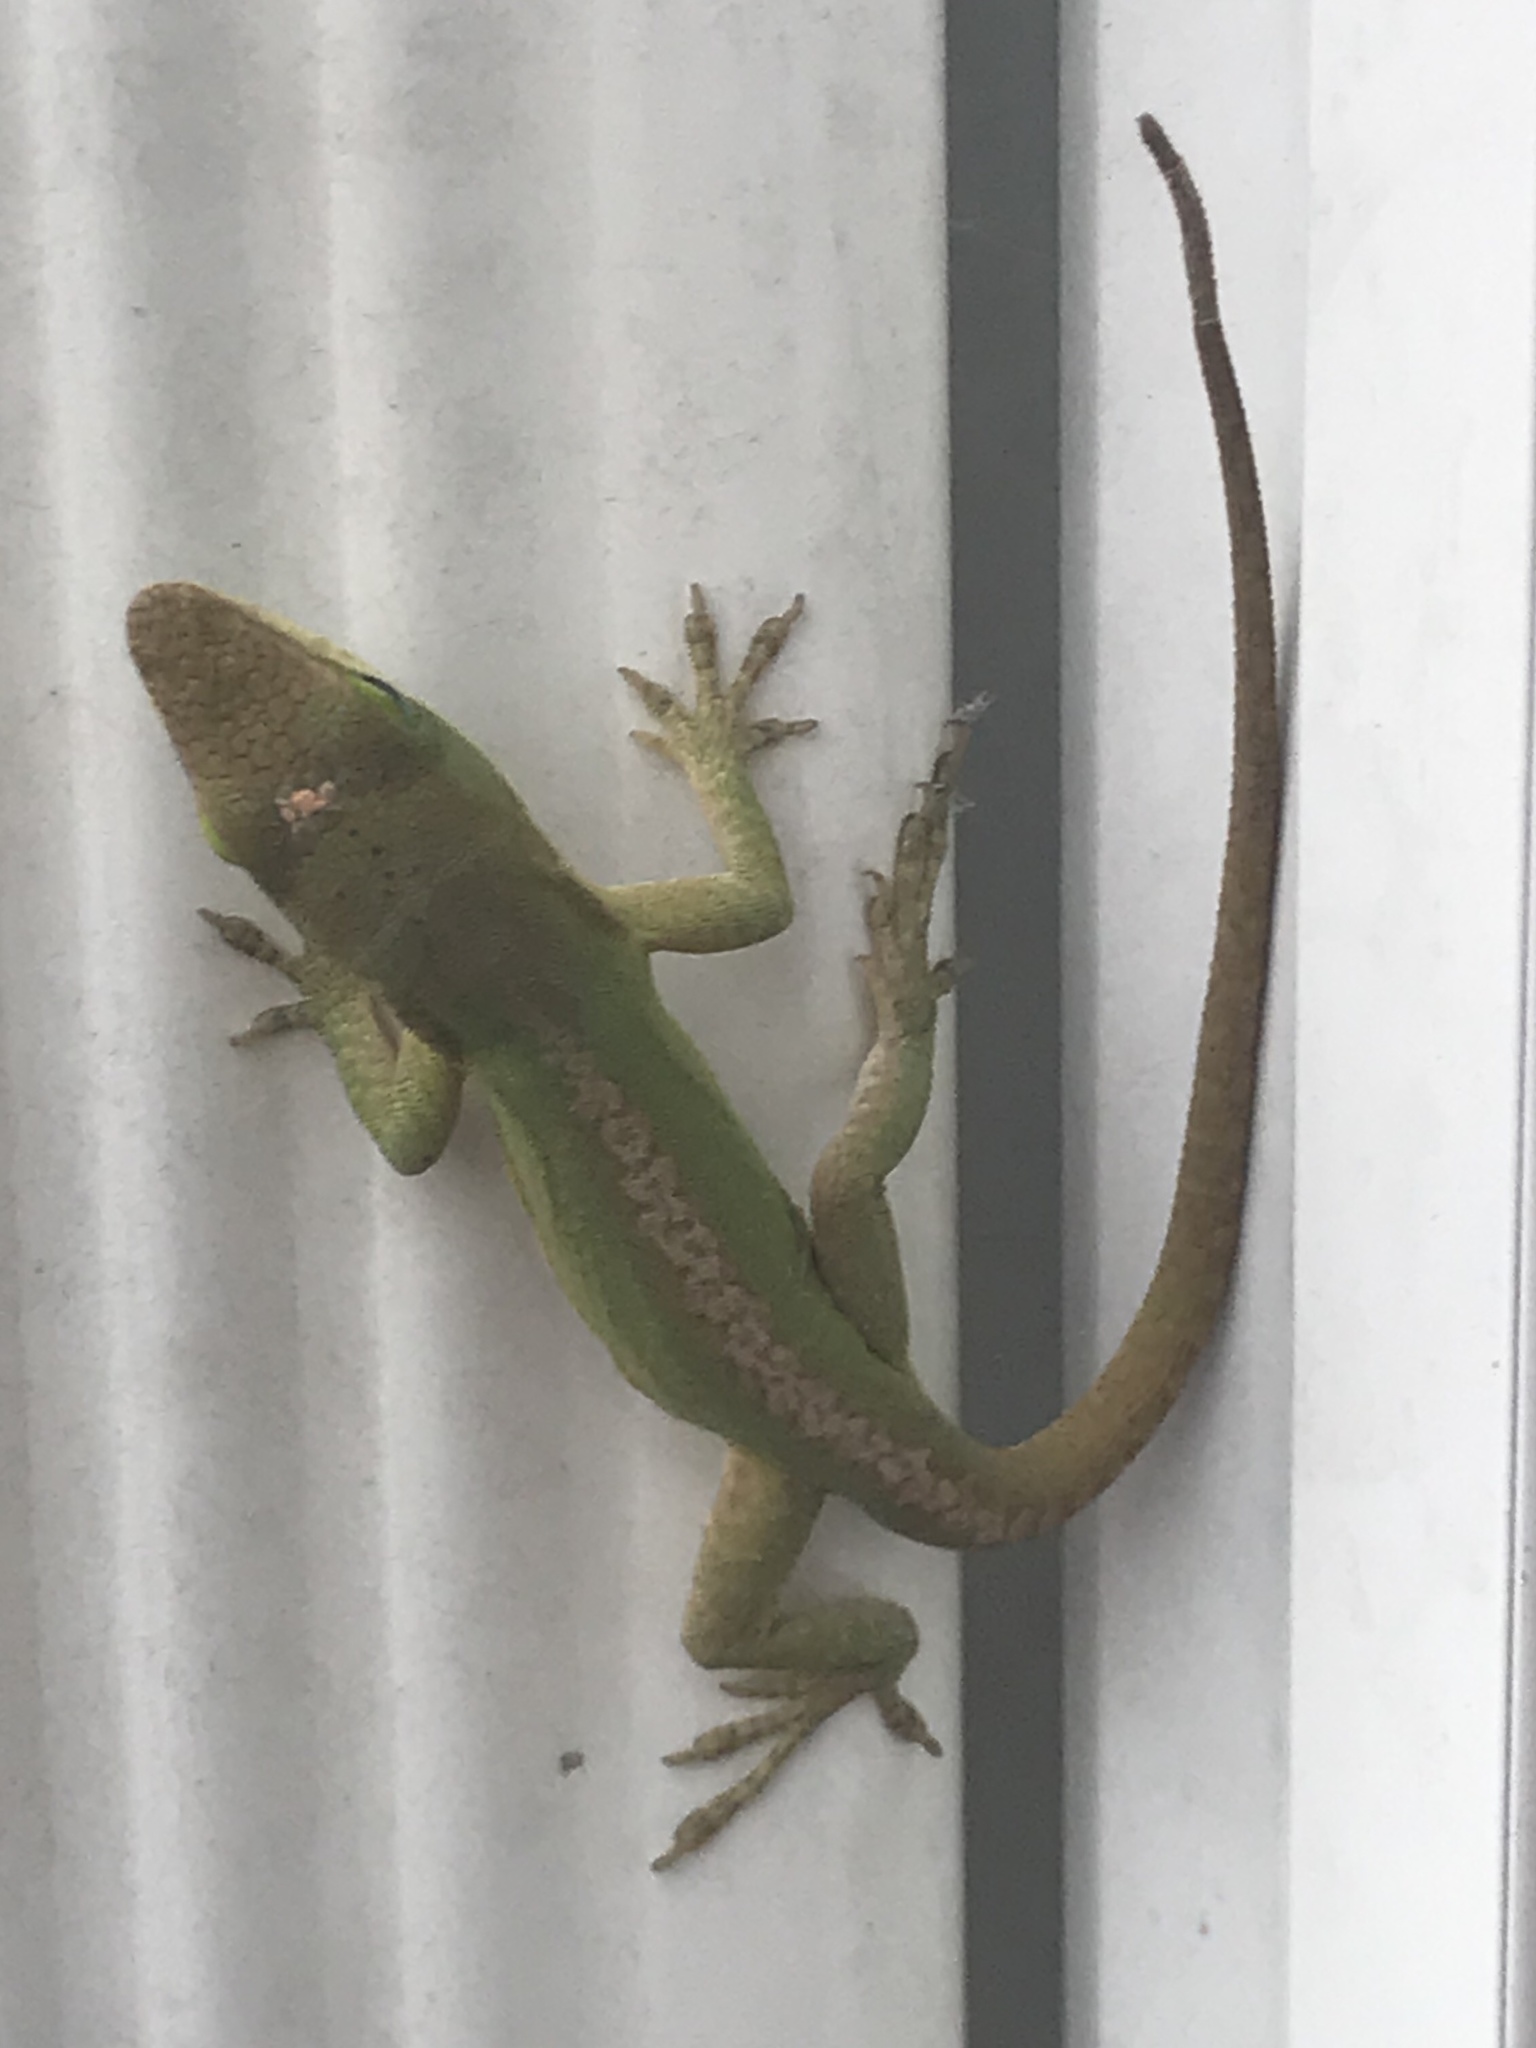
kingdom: Animalia
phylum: Chordata
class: Squamata
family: Dactyloidae
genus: Anolis
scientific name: Anolis carolinensis
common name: Green anole
